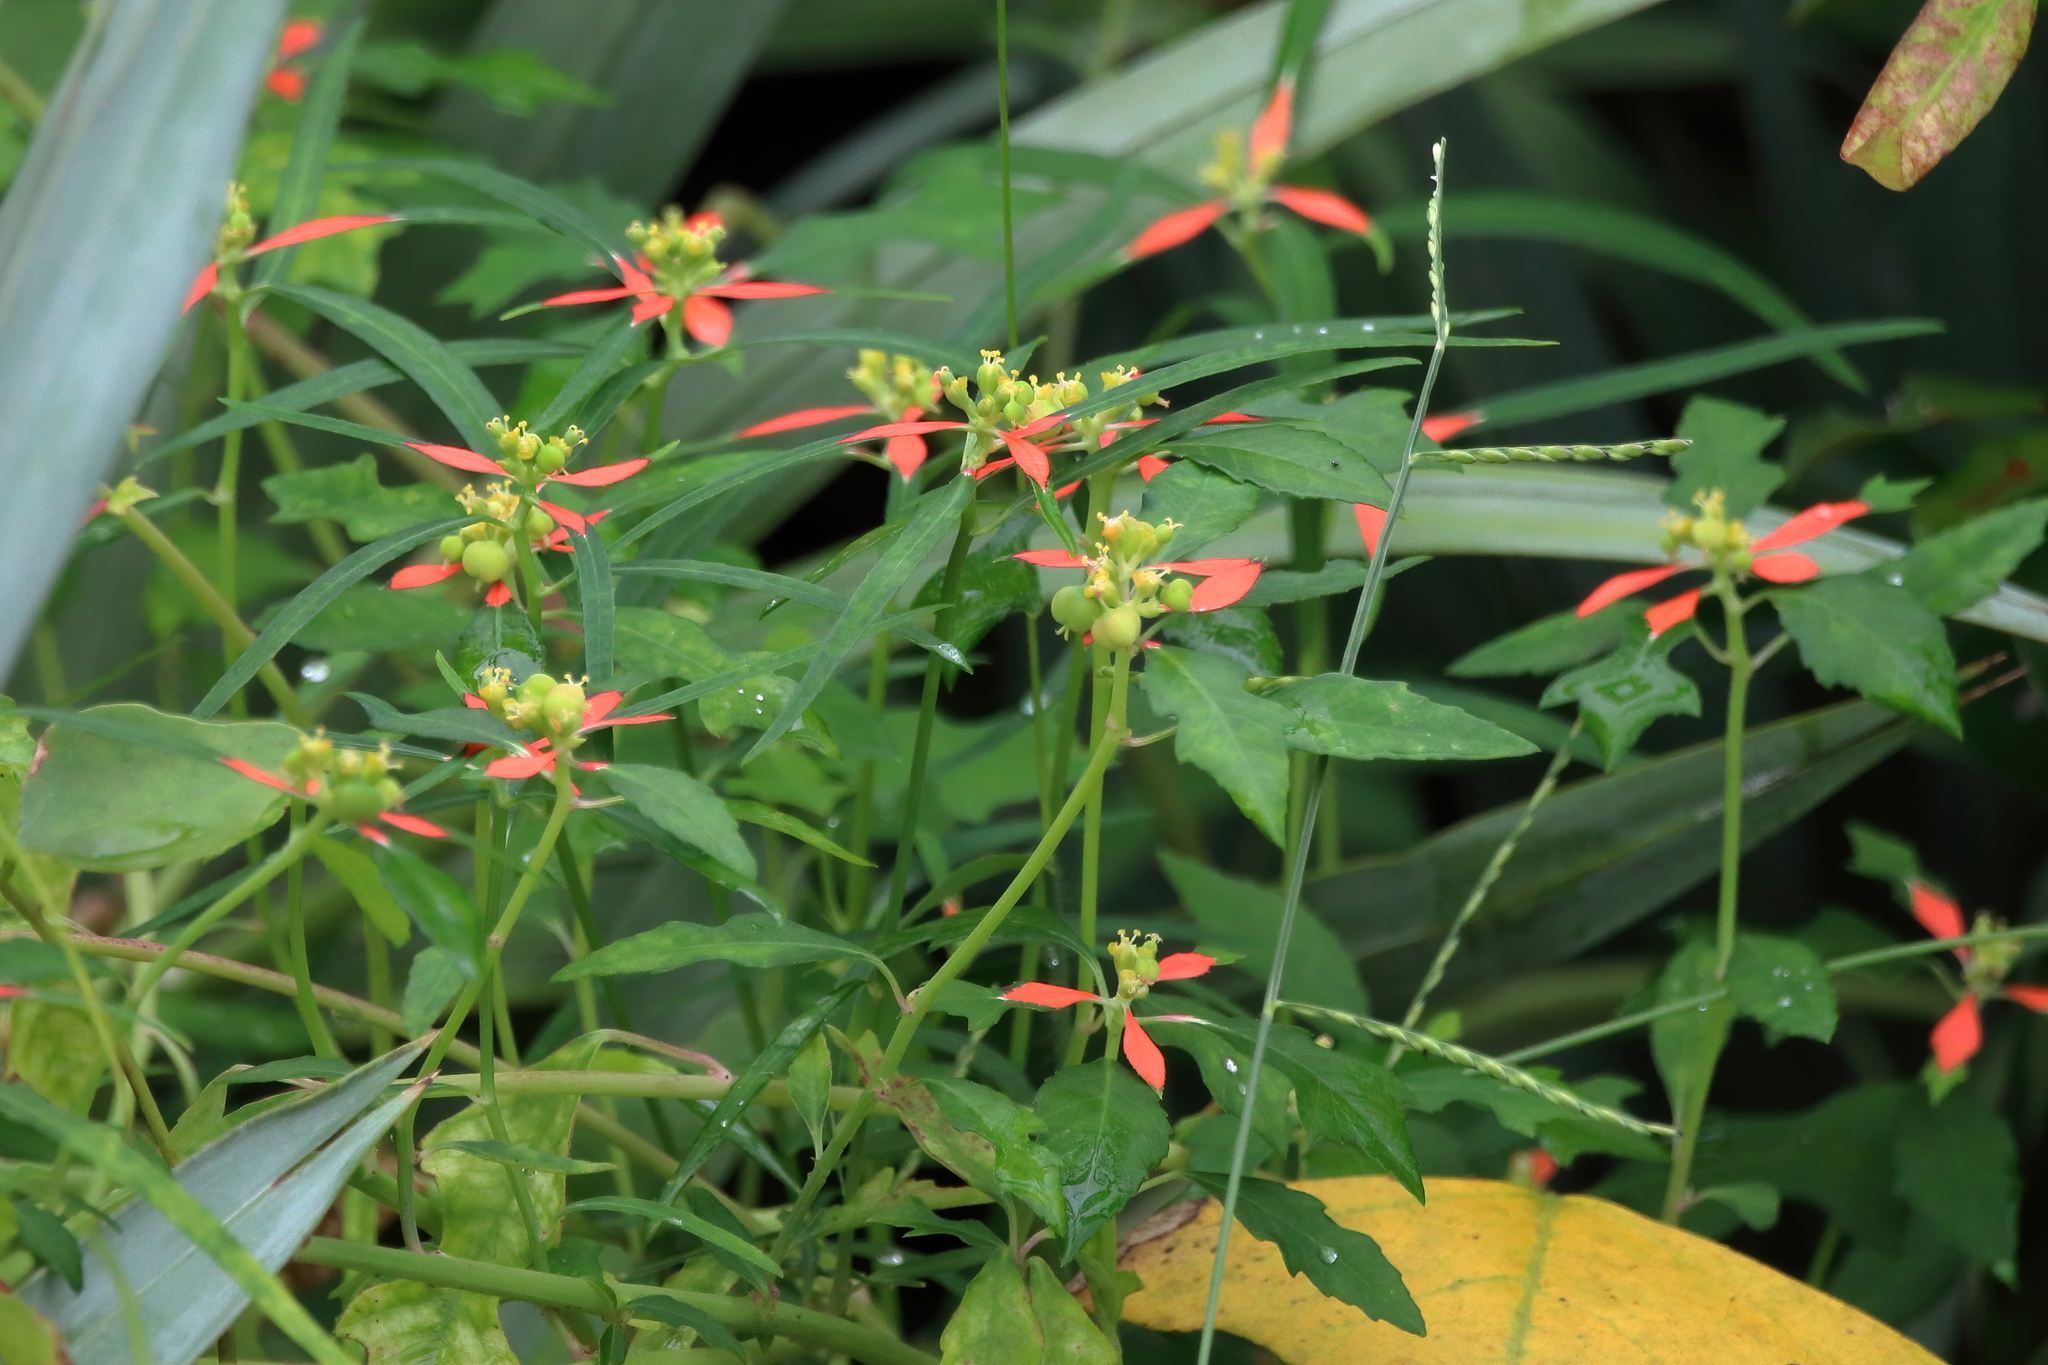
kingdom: Plantae
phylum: Tracheophyta
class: Magnoliopsida
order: Malpighiales
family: Euphorbiaceae
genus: Euphorbia
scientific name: Euphorbia heterophylla
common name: Mexican fireplant
